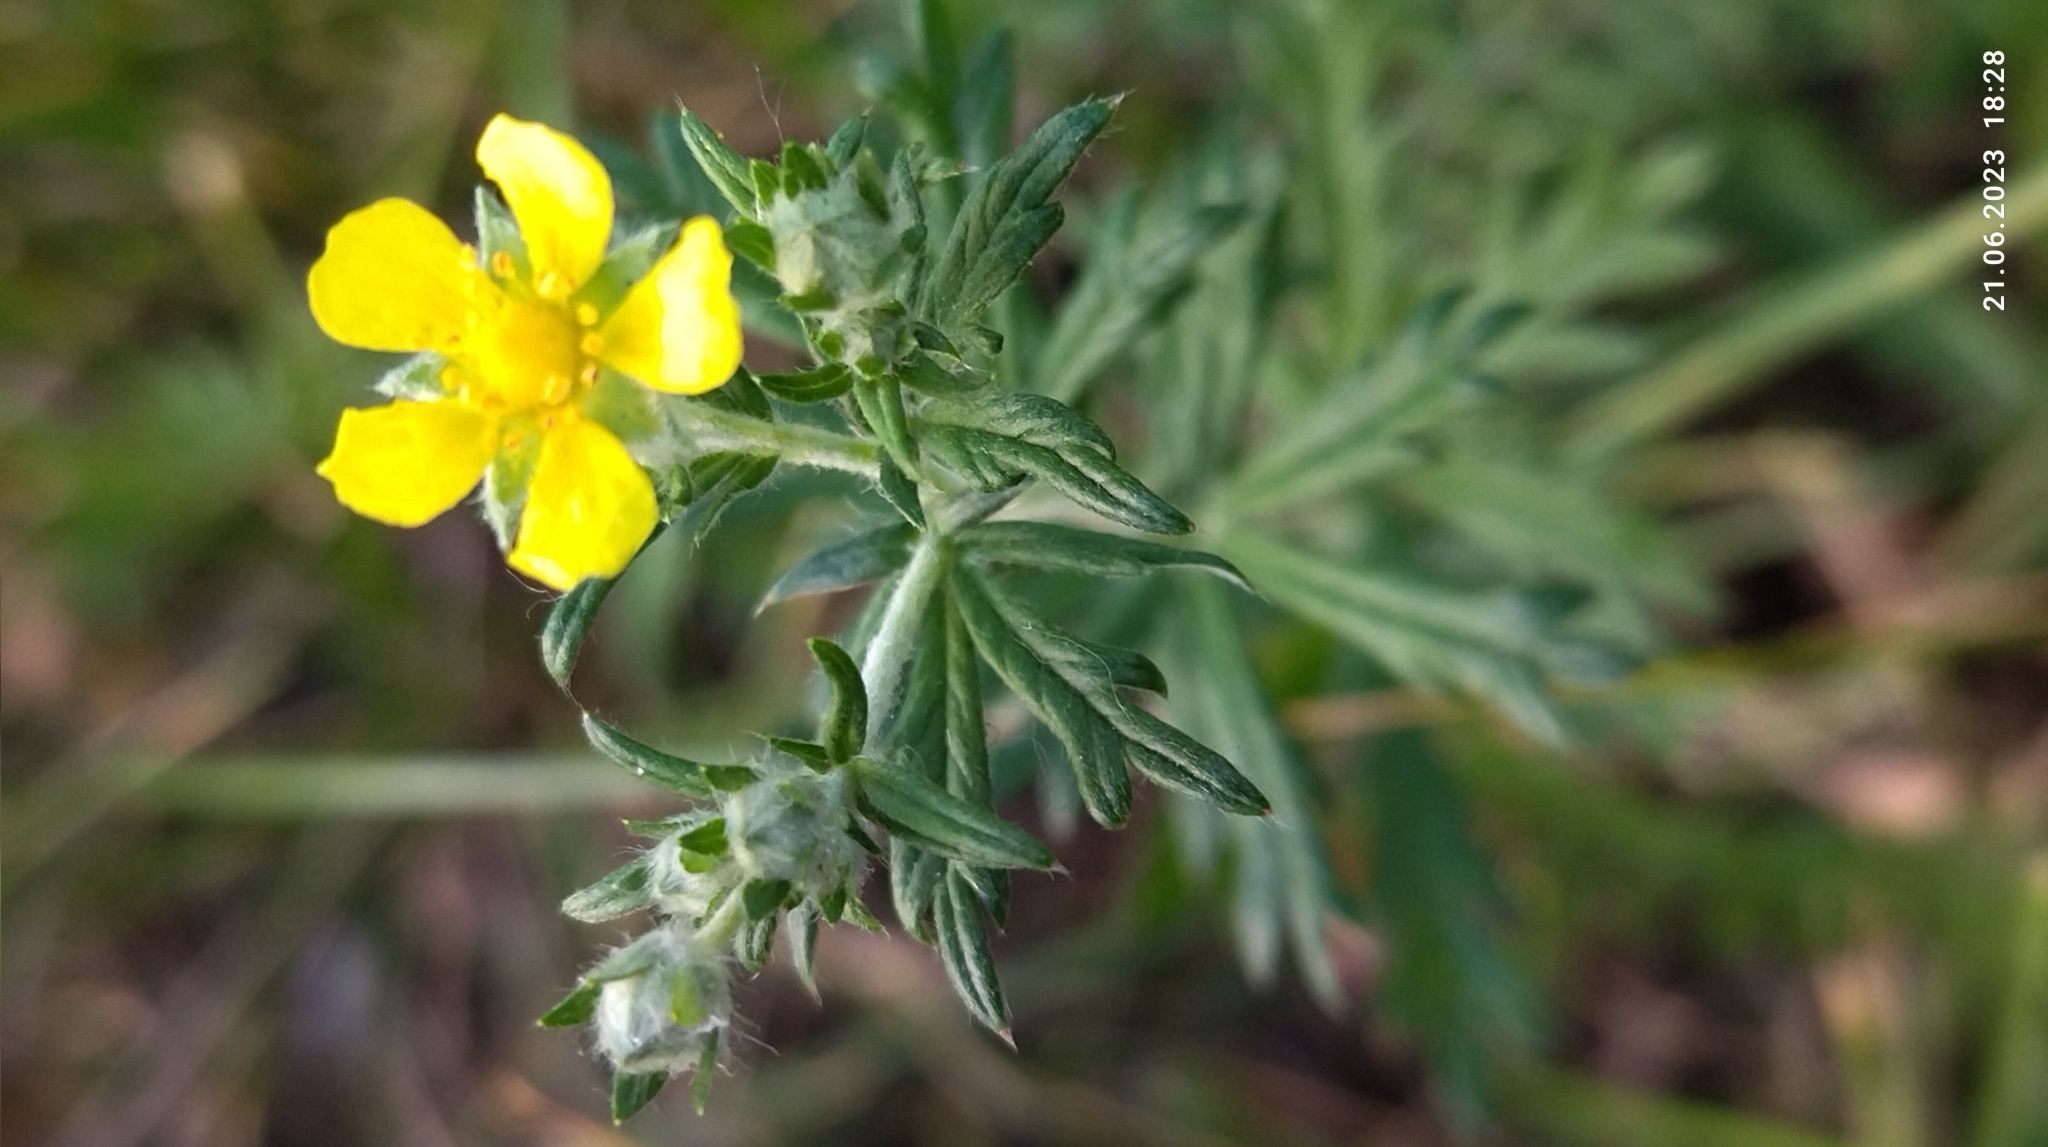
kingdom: Plantae
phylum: Tracheophyta
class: Magnoliopsida
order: Rosales
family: Rosaceae
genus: Potentilla
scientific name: Potentilla argentea
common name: Hoary cinquefoil
